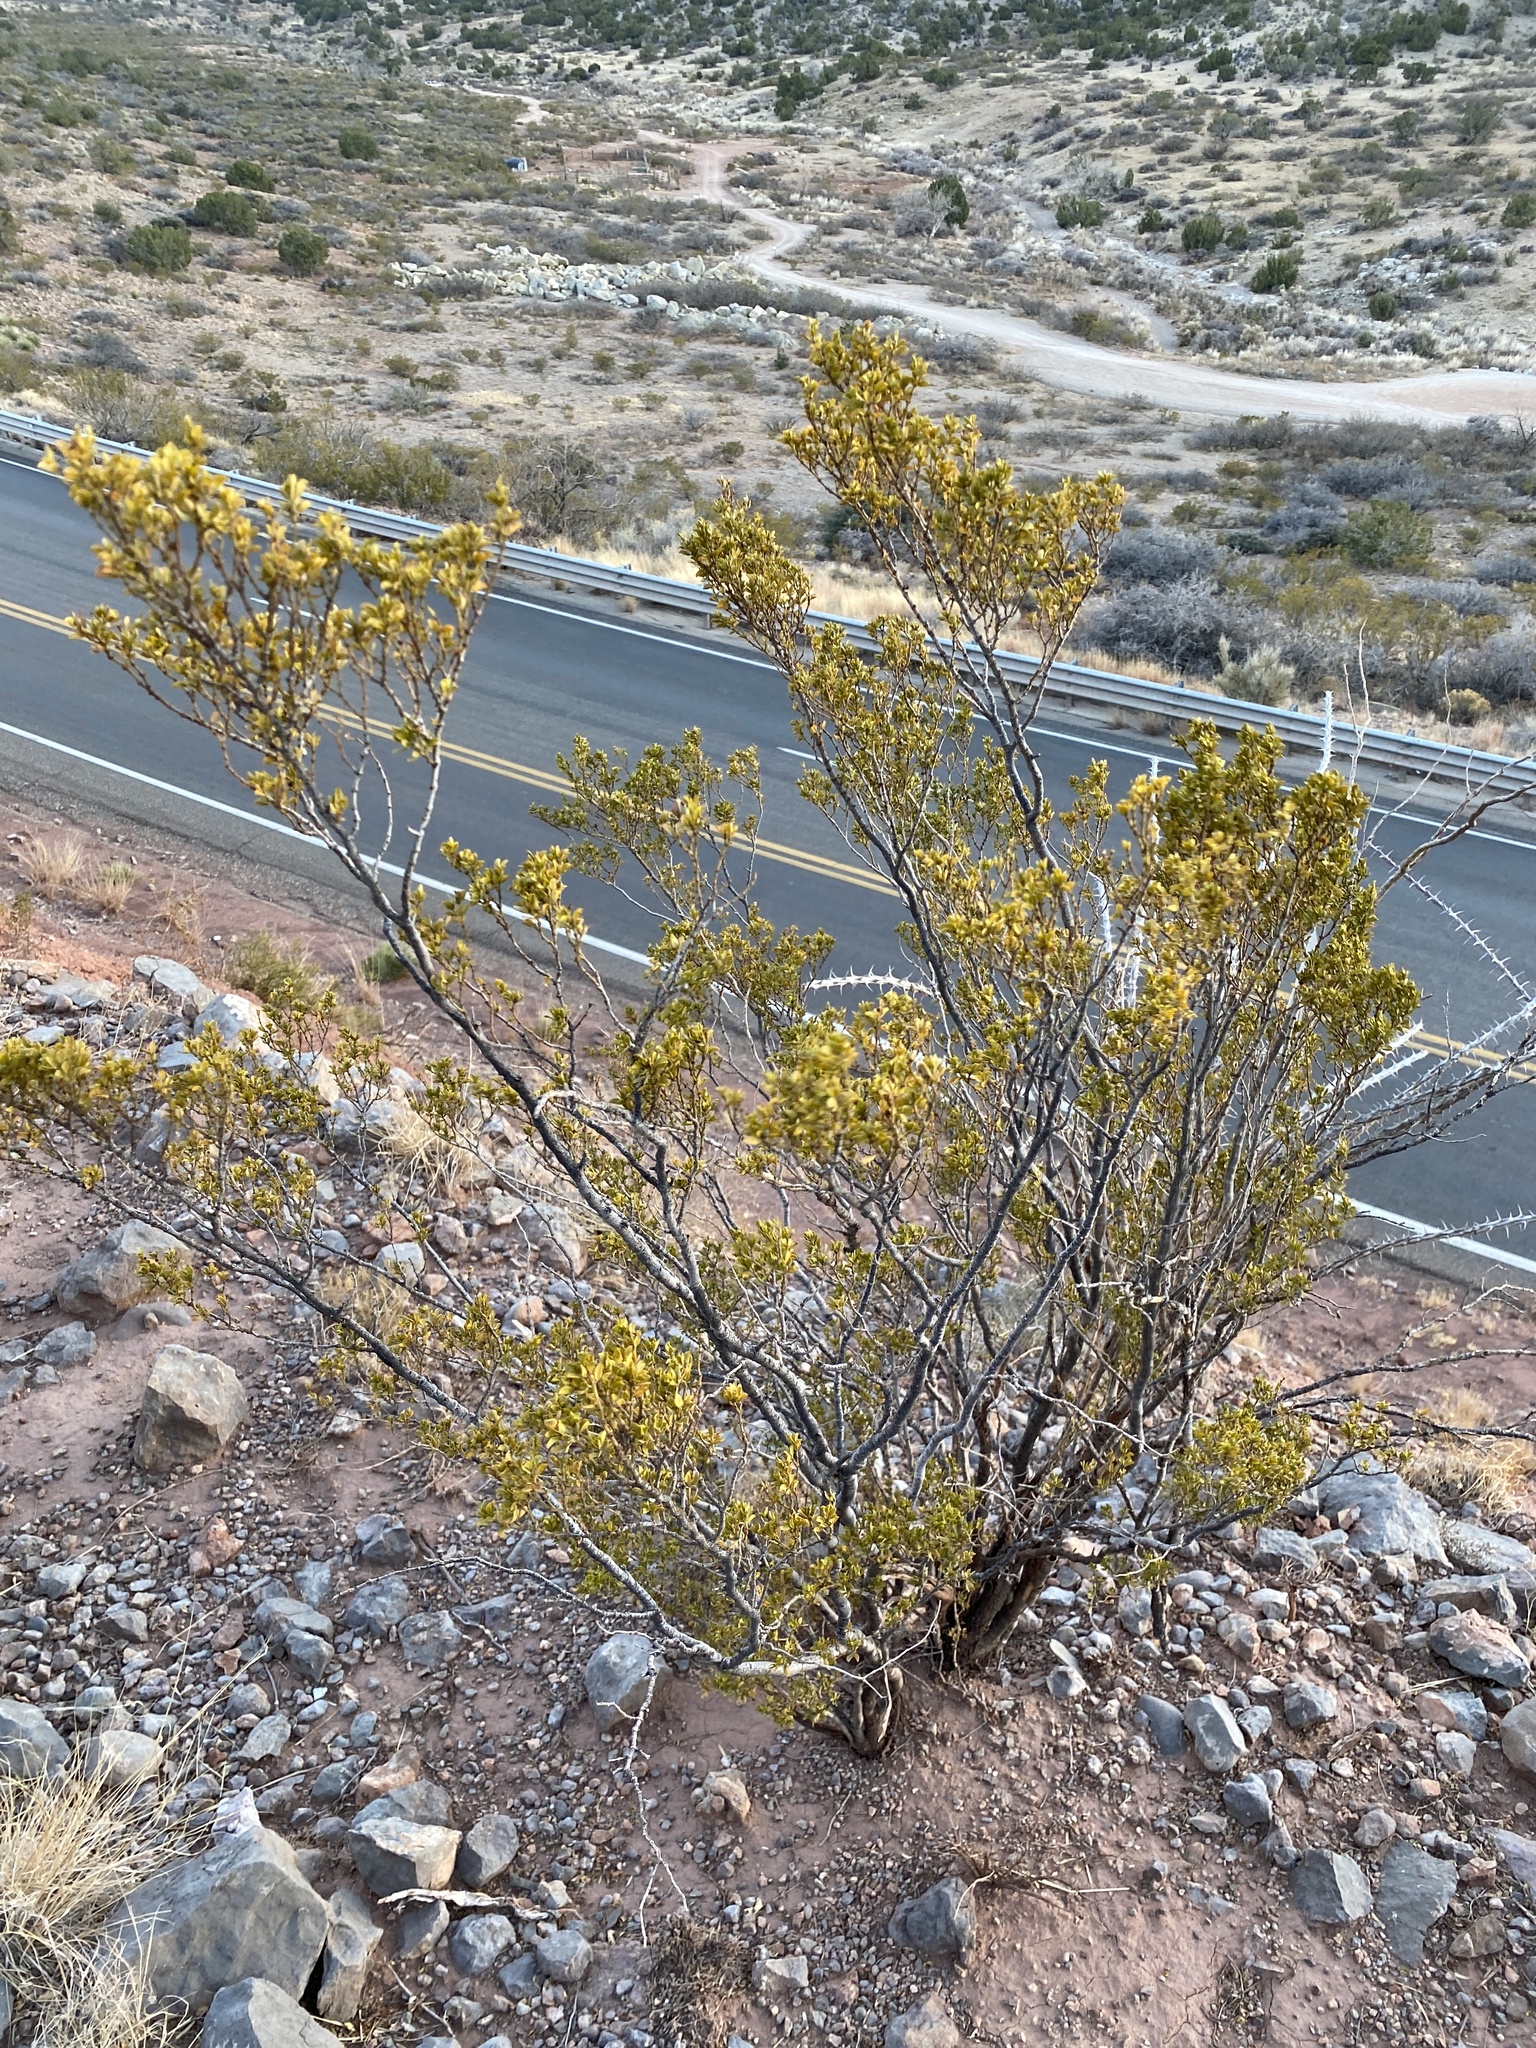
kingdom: Plantae
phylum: Tracheophyta
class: Magnoliopsida
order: Zygophyllales
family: Zygophyllaceae
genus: Larrea
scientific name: Larrea tridentata
